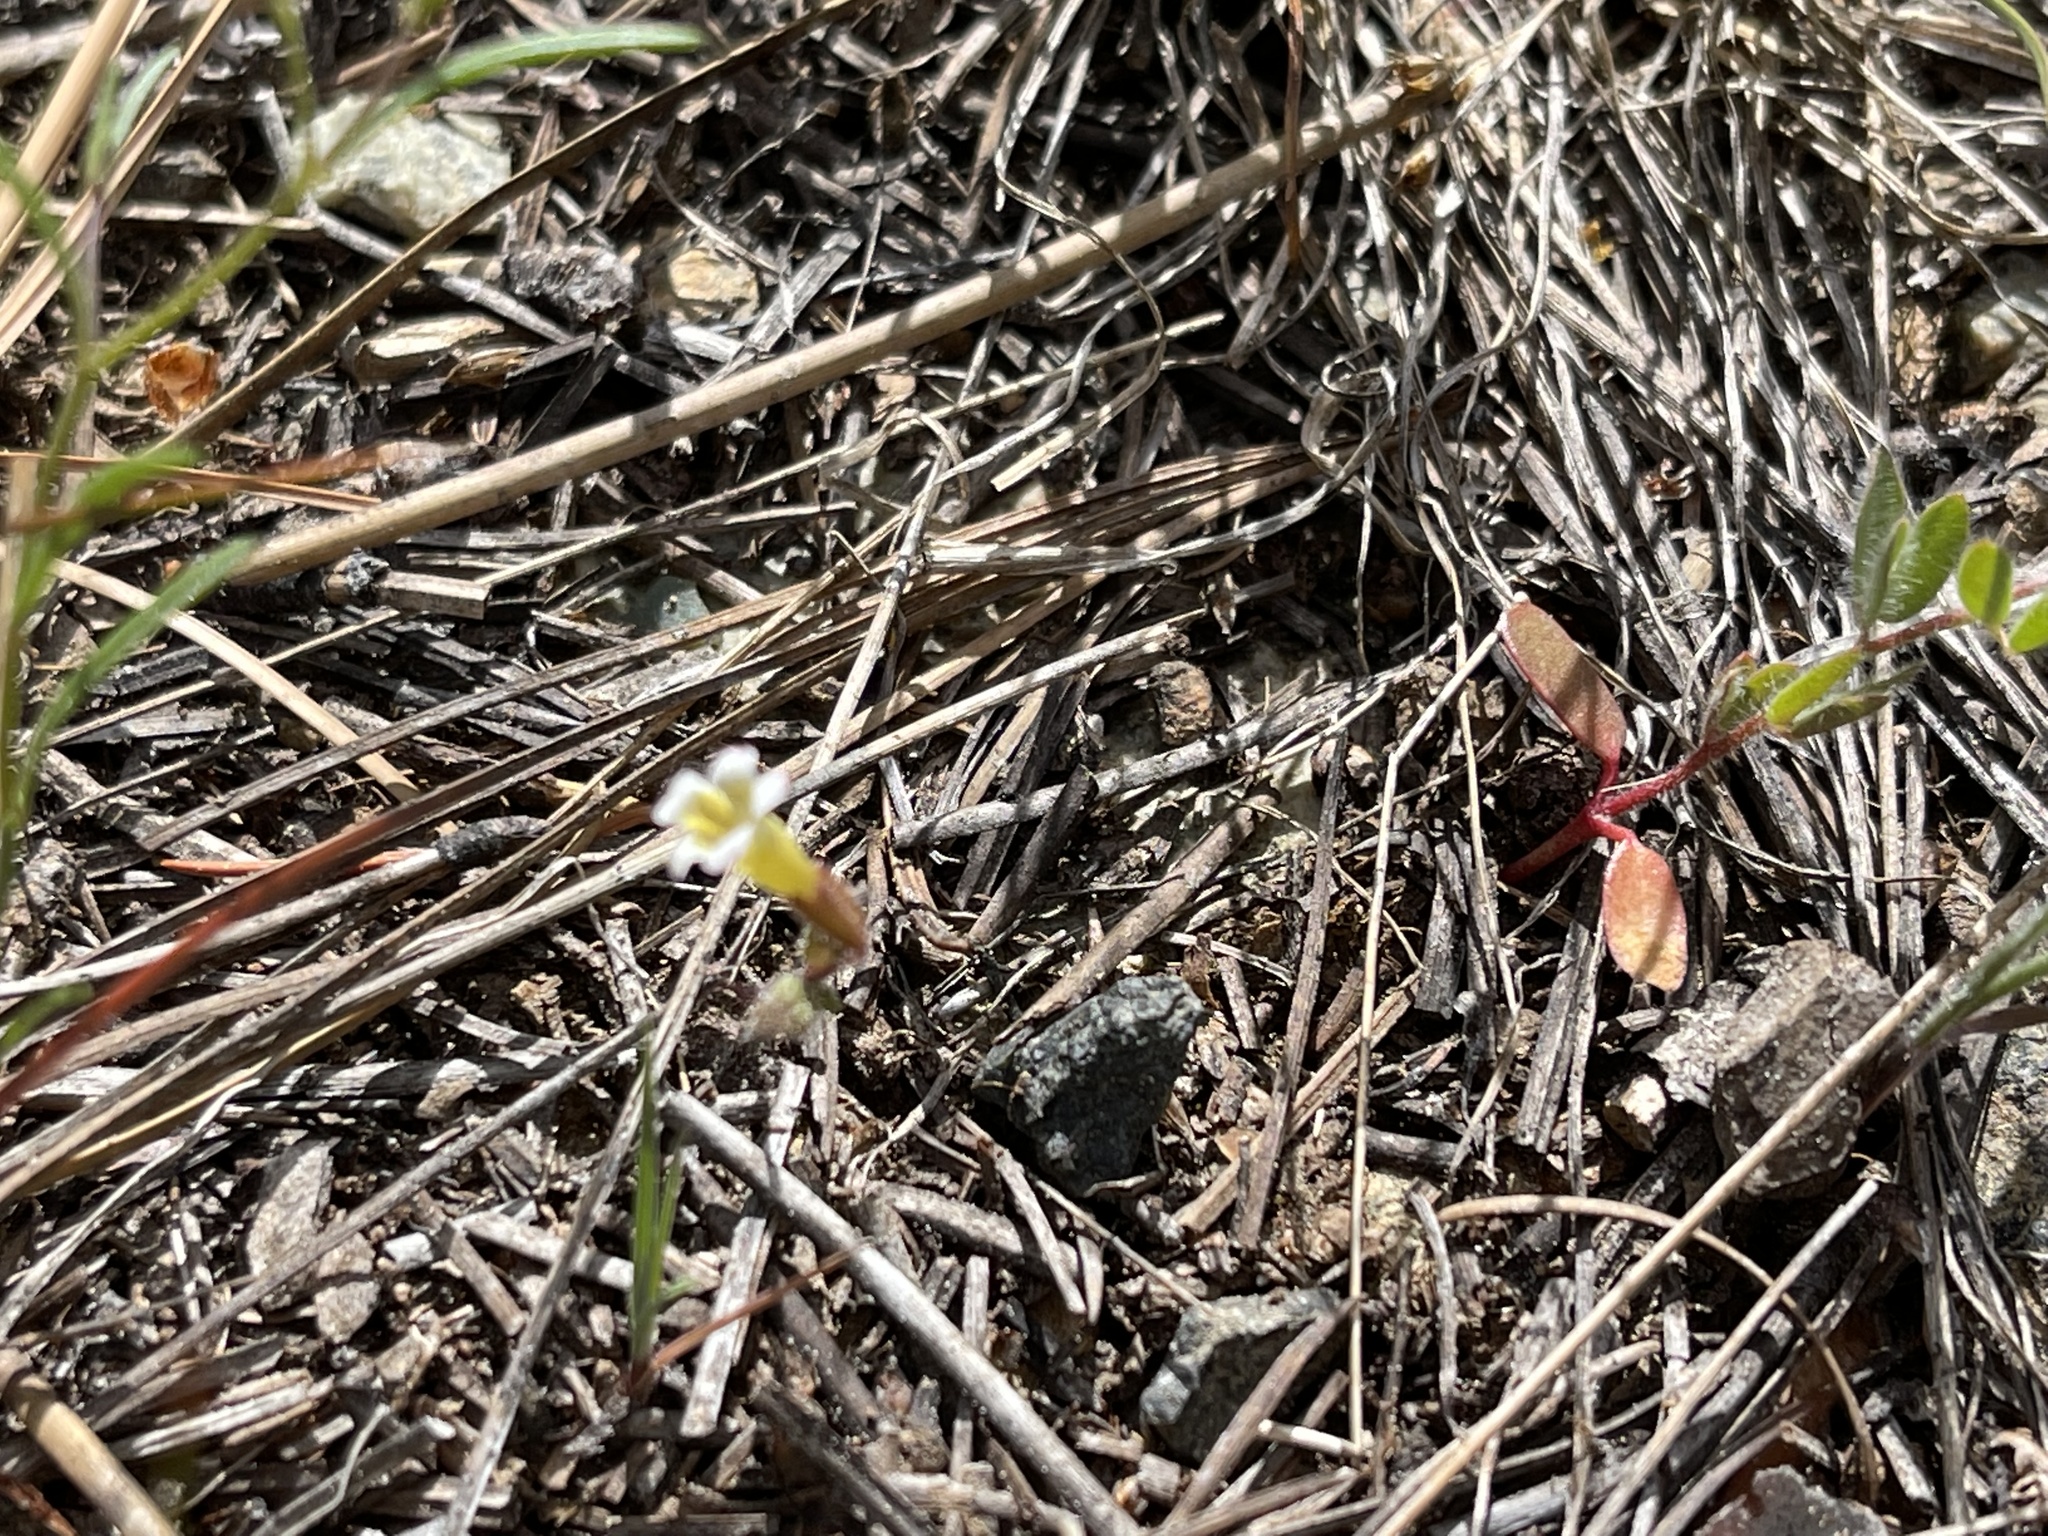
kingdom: Plantae
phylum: Tracheophyta
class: Magnoliopsida
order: Lamiales
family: Phrymaceae
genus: Erythranthe
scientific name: Erythranthe trinitiensis
